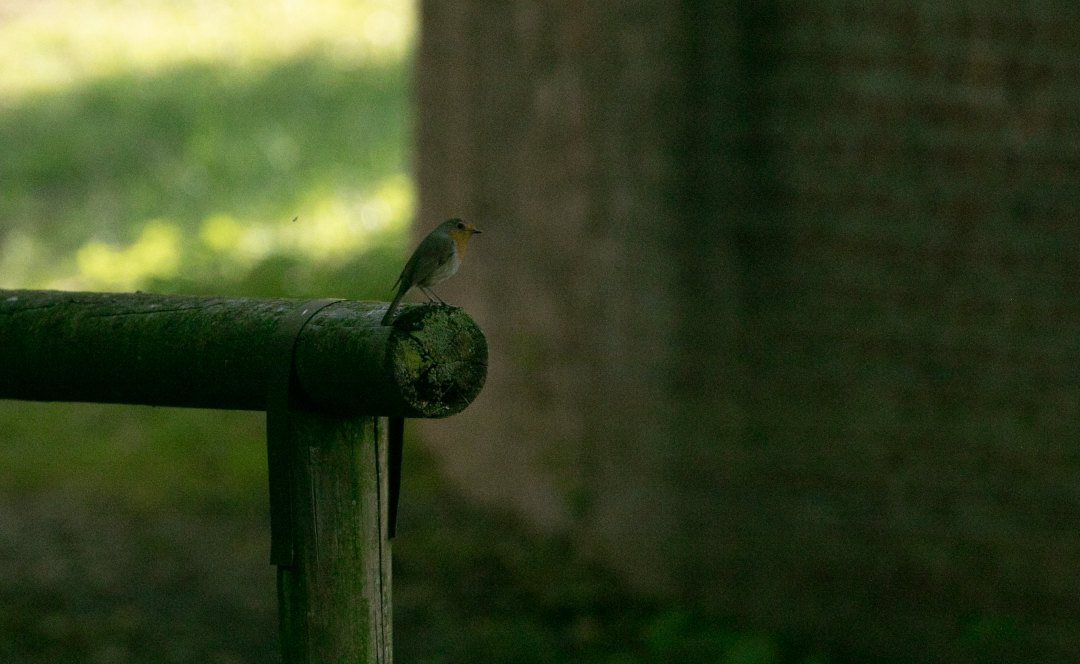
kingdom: Animalia
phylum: Chordata
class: Aves
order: Passeriformes
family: Muscicapidae
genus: Erithacus
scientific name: Erithacus rubecula
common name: European robin
